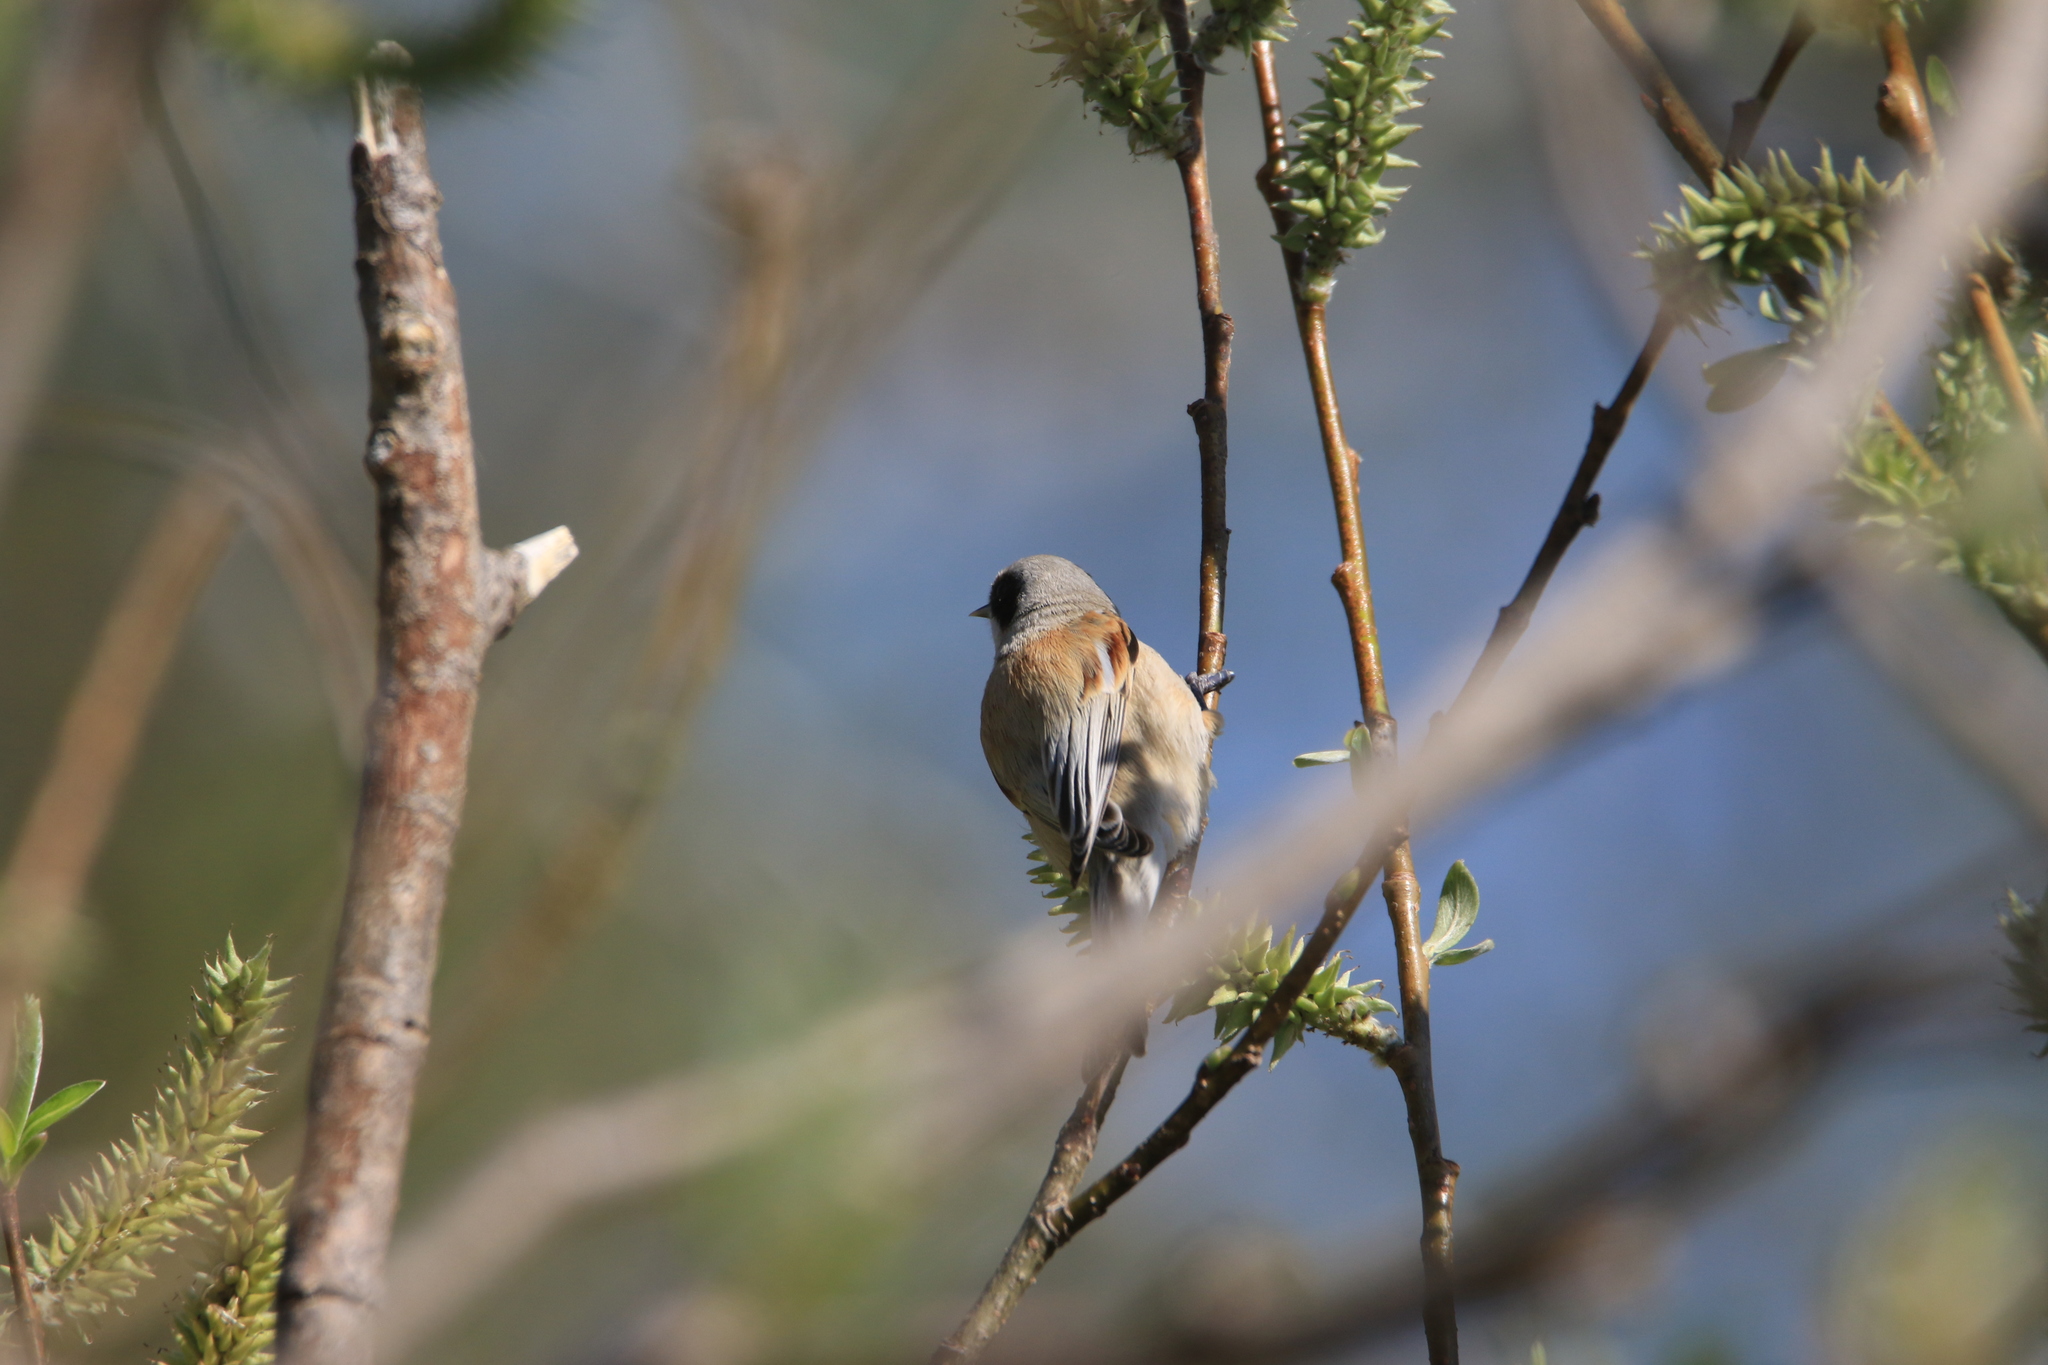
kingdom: Animalia
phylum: Chordata
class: Aves
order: Passeriformes
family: Remizidae
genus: Remiz
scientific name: Remiz pendulinus
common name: Eurasian penduline tit
